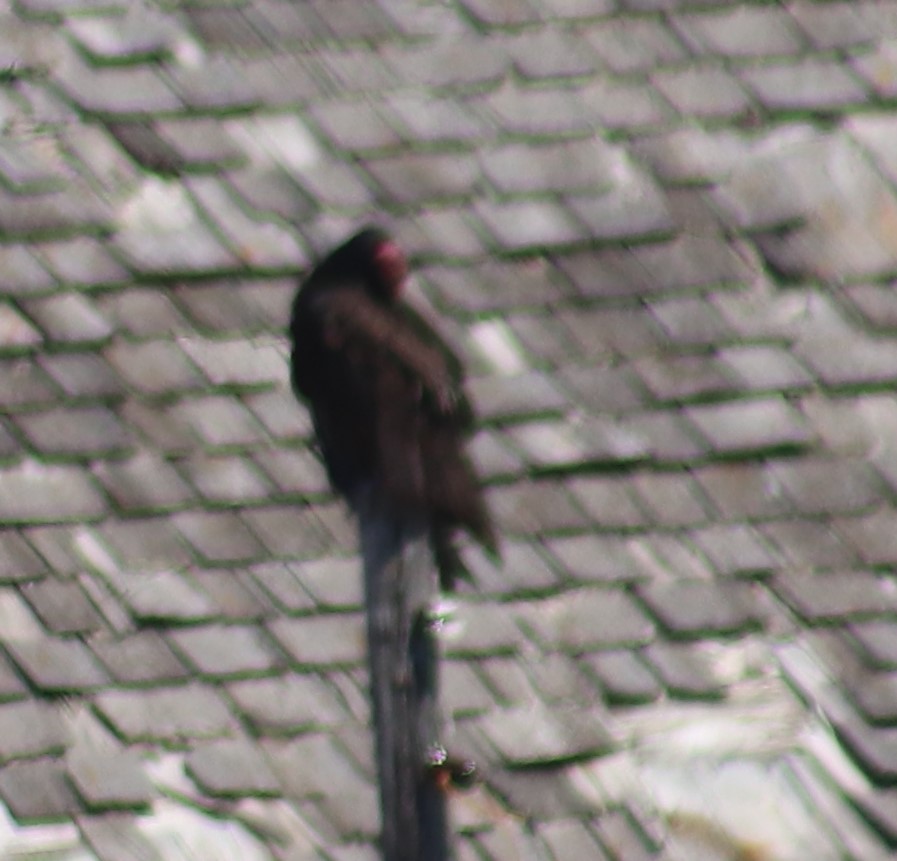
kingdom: Animalia
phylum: Chordata
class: Aves
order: Accipitriformes
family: Cathartidae
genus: Cathartes
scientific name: Cathartes aura
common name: Turkey vulture
